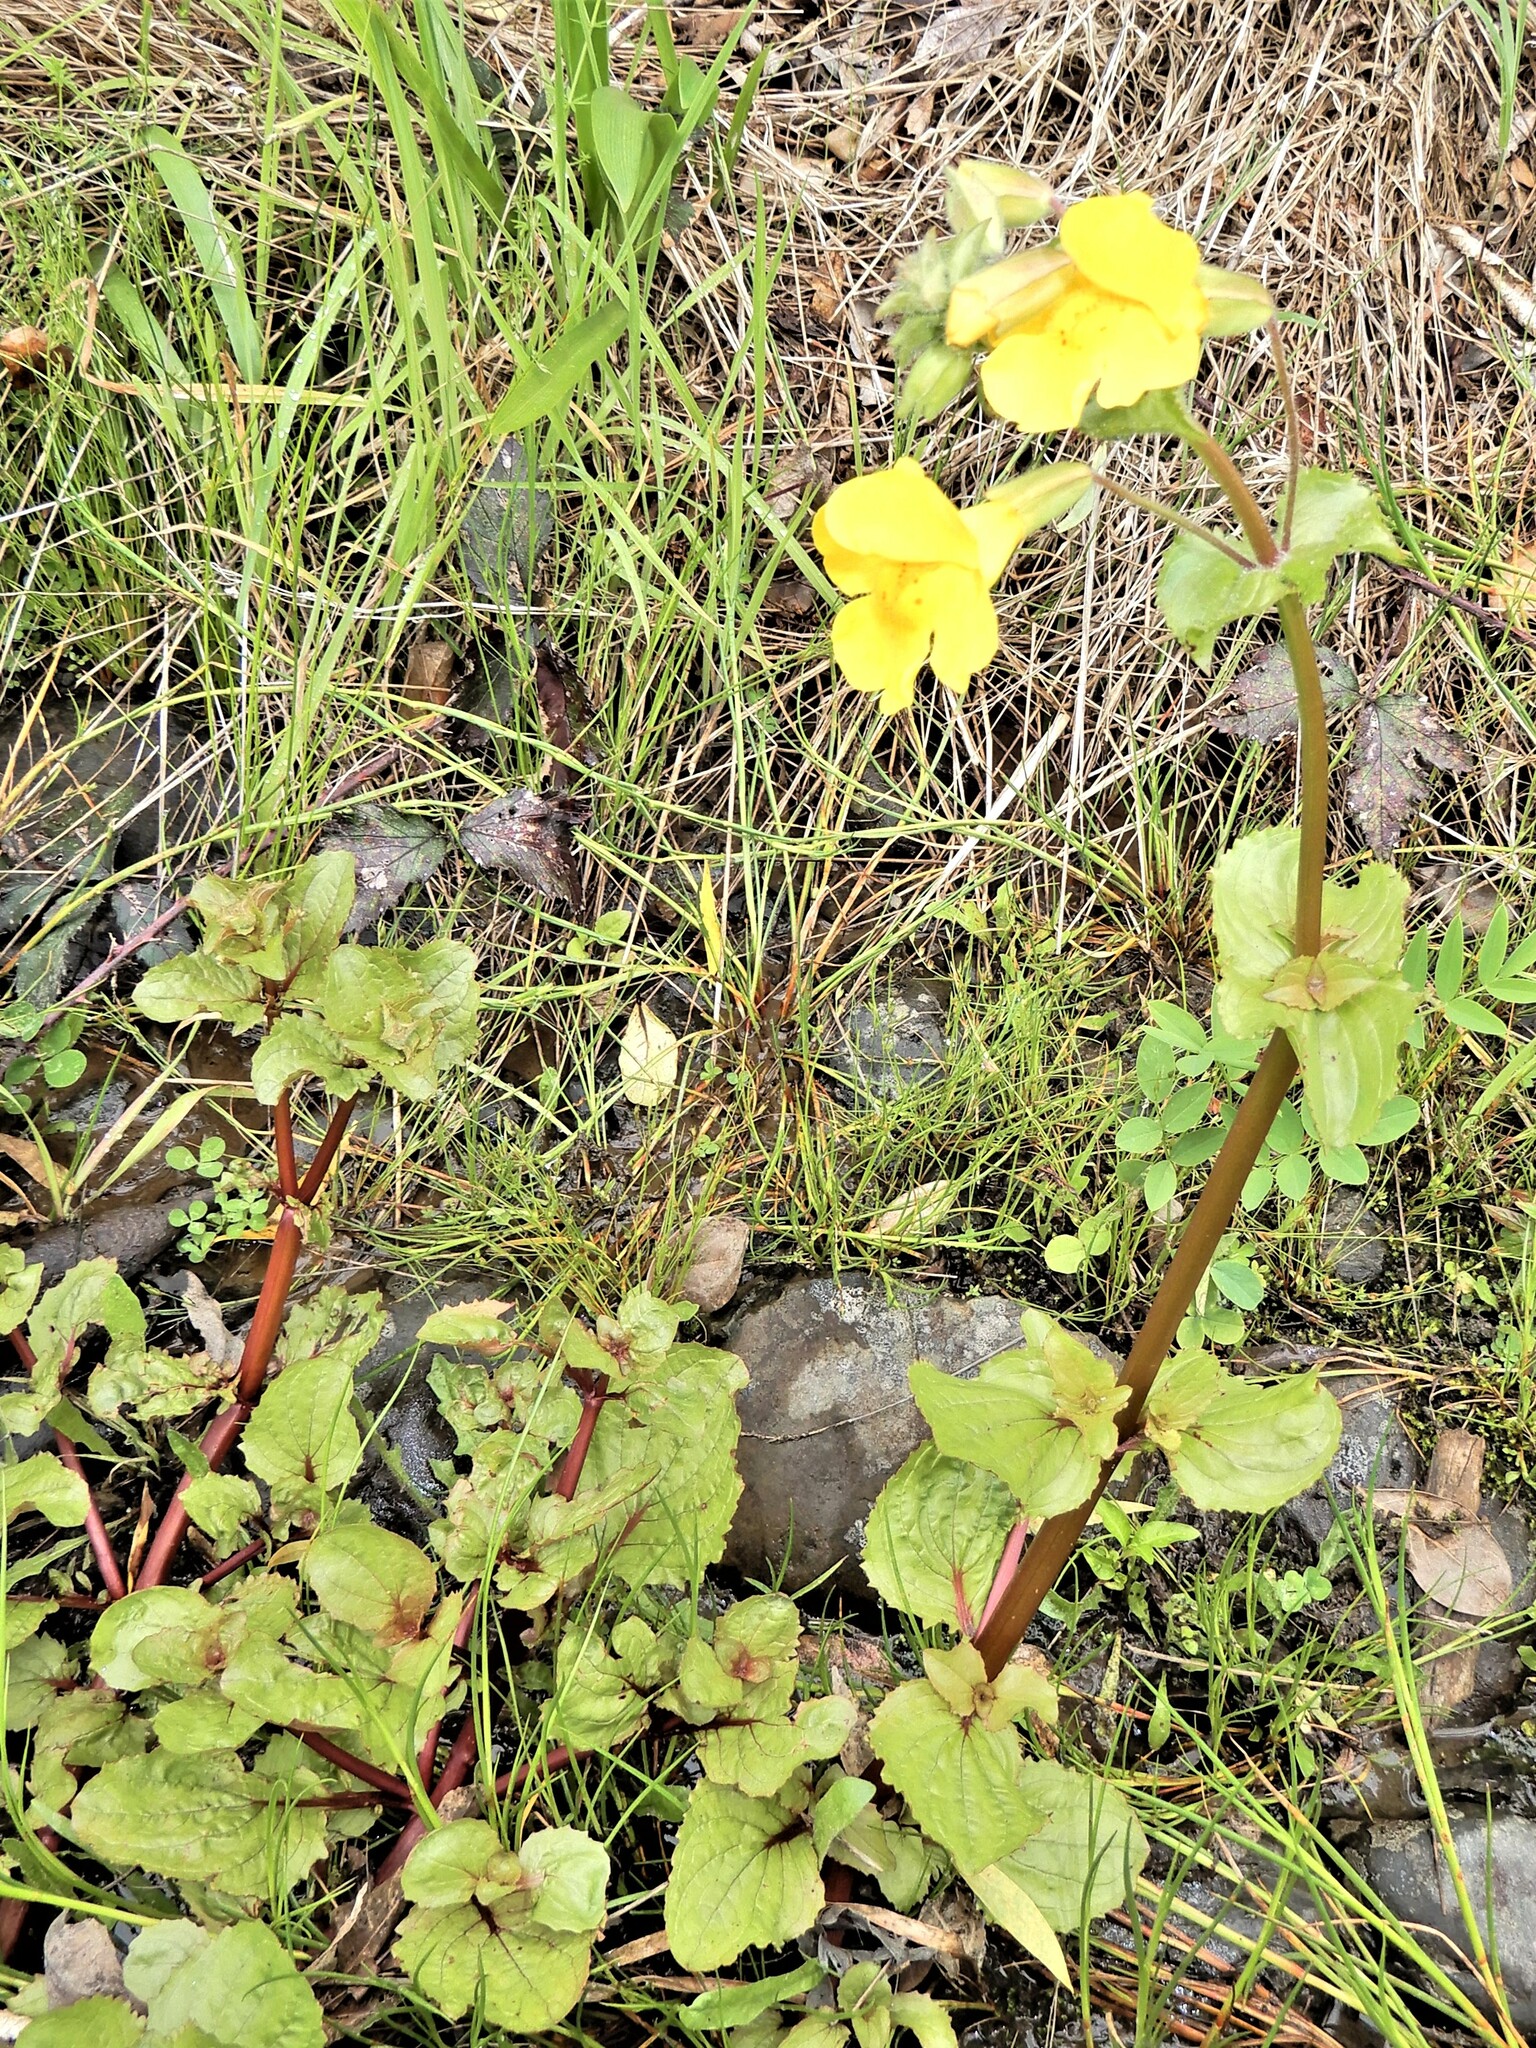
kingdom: Plantae
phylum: Tracheophyta
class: Magnoliopsida
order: Lamiales
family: Phrymaceae
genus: Erythranthe
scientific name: Erythranthe guttata
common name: Monkeyflower
